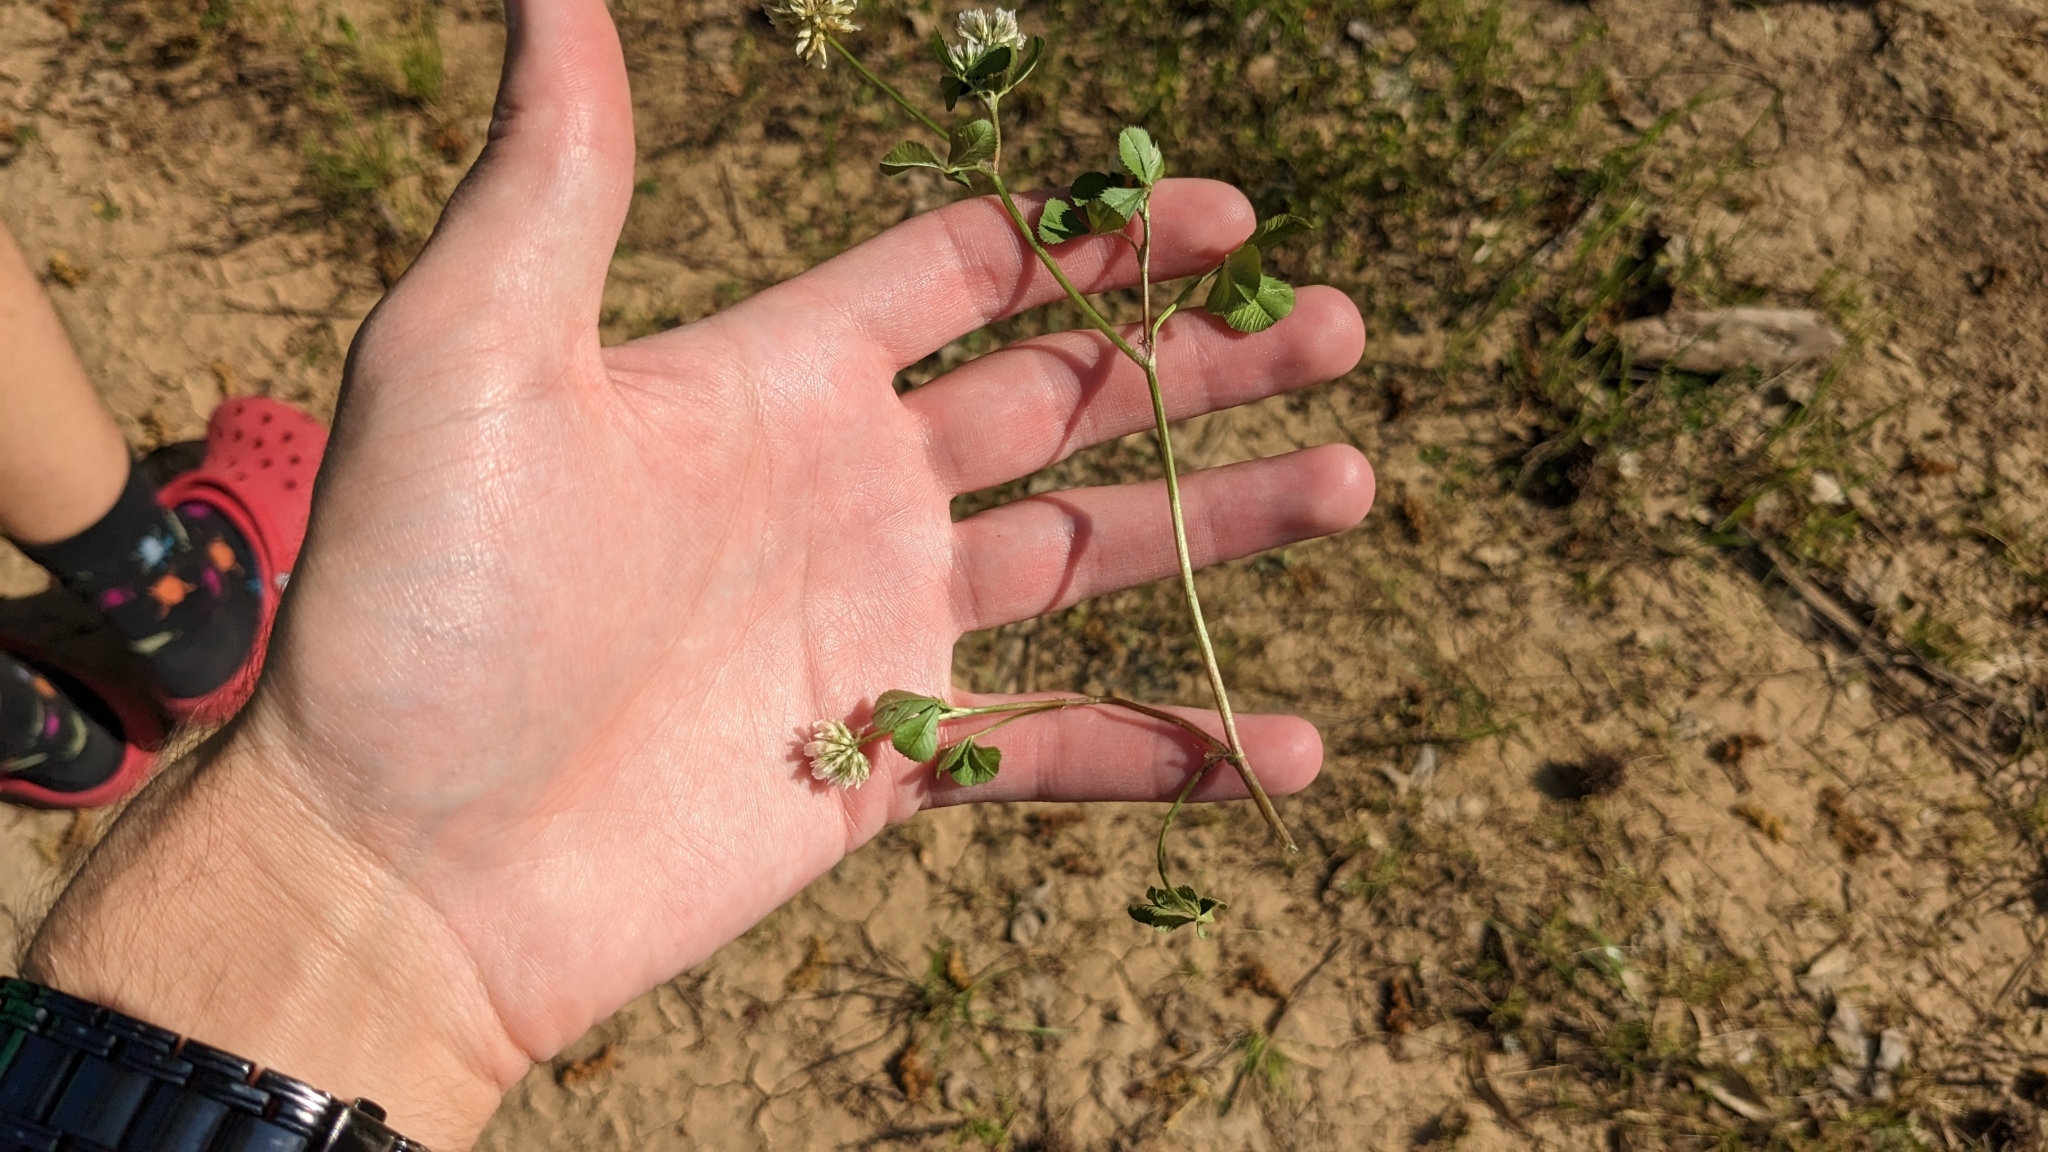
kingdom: Plantae
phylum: Tracheophyta
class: Magnoliopsida
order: Fabales
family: Fabaceae
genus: Trifolium
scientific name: Trifolium nigrescens
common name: Small white clover
